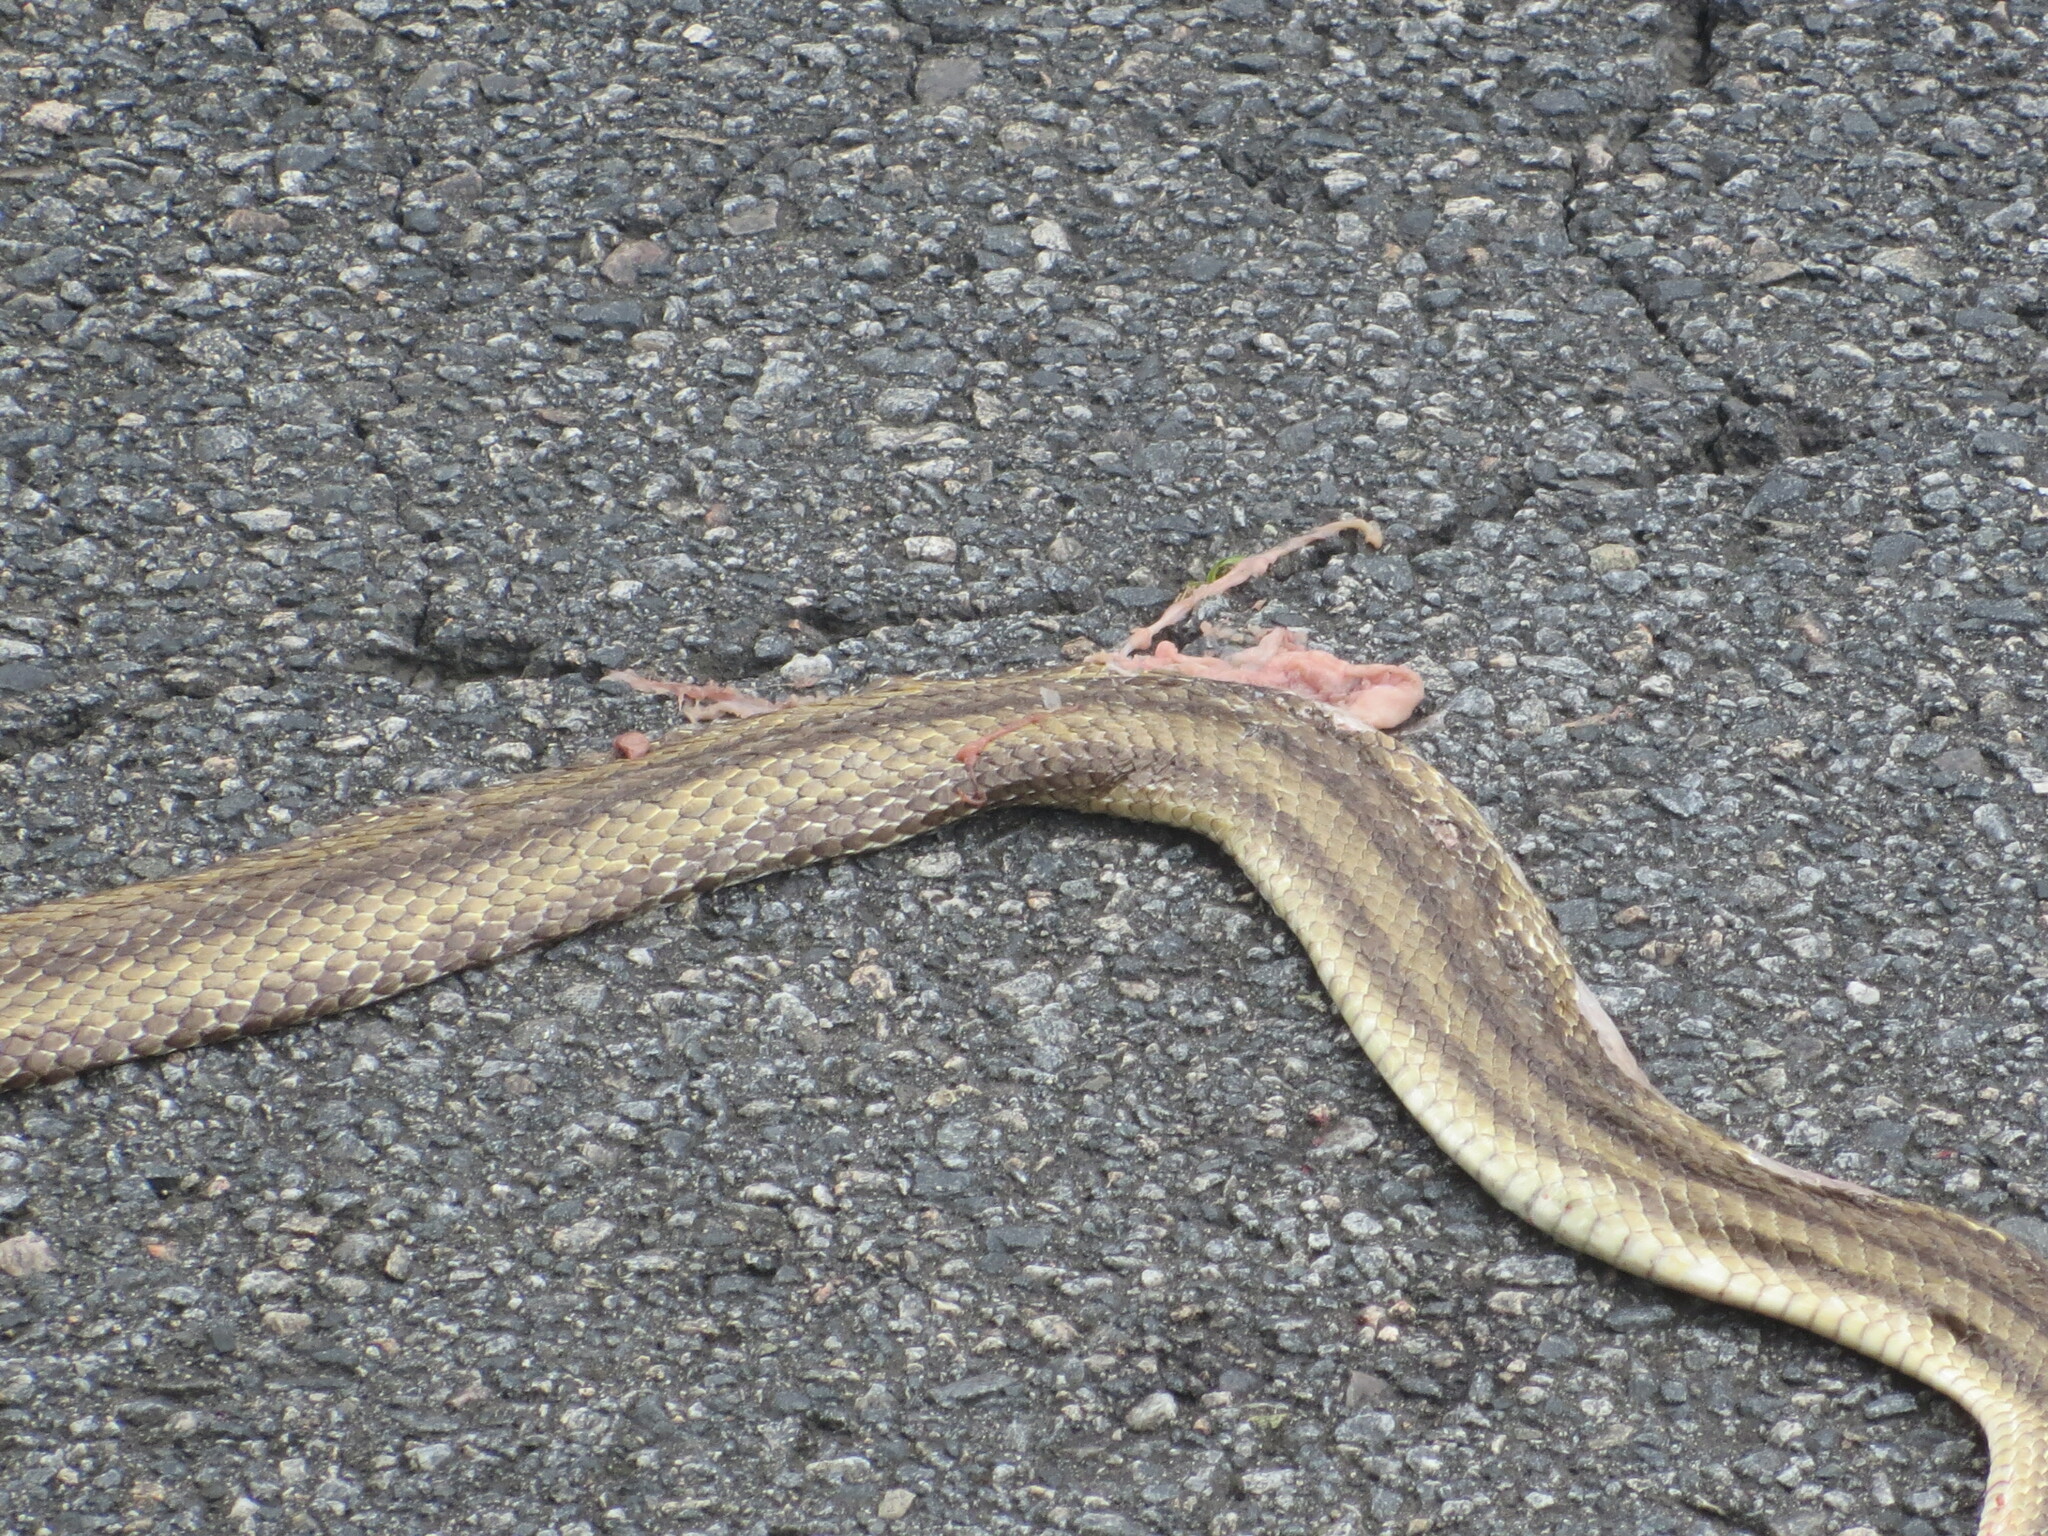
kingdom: Animalia
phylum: Chordata
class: Squamata
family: Colubridae
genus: Pantherophis
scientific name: Pantherophis alleghaniensis
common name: Eastern rat snake
